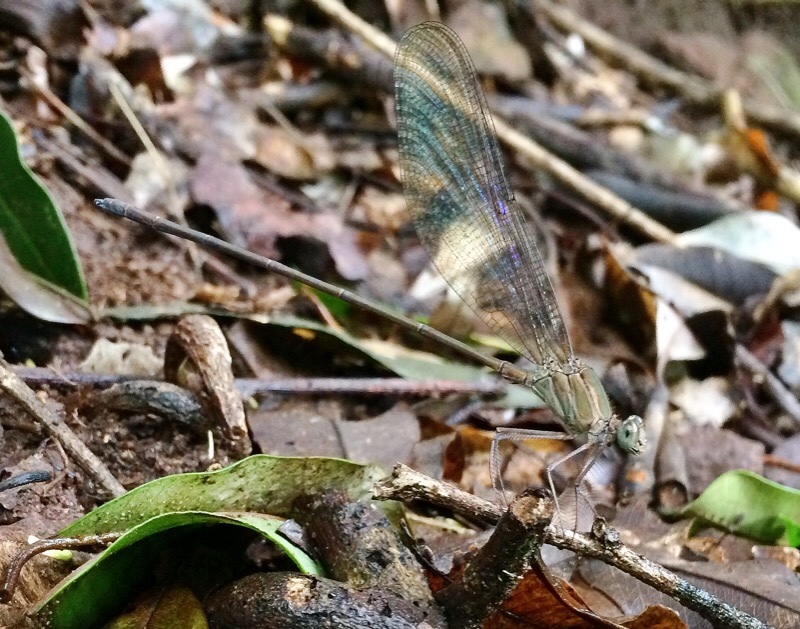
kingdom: Animalia
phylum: Arthropoda
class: Insecta
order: Odonata
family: Calopterygidae
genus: Phaon
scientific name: Phaon iridipennis
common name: Glistening demoiselle
